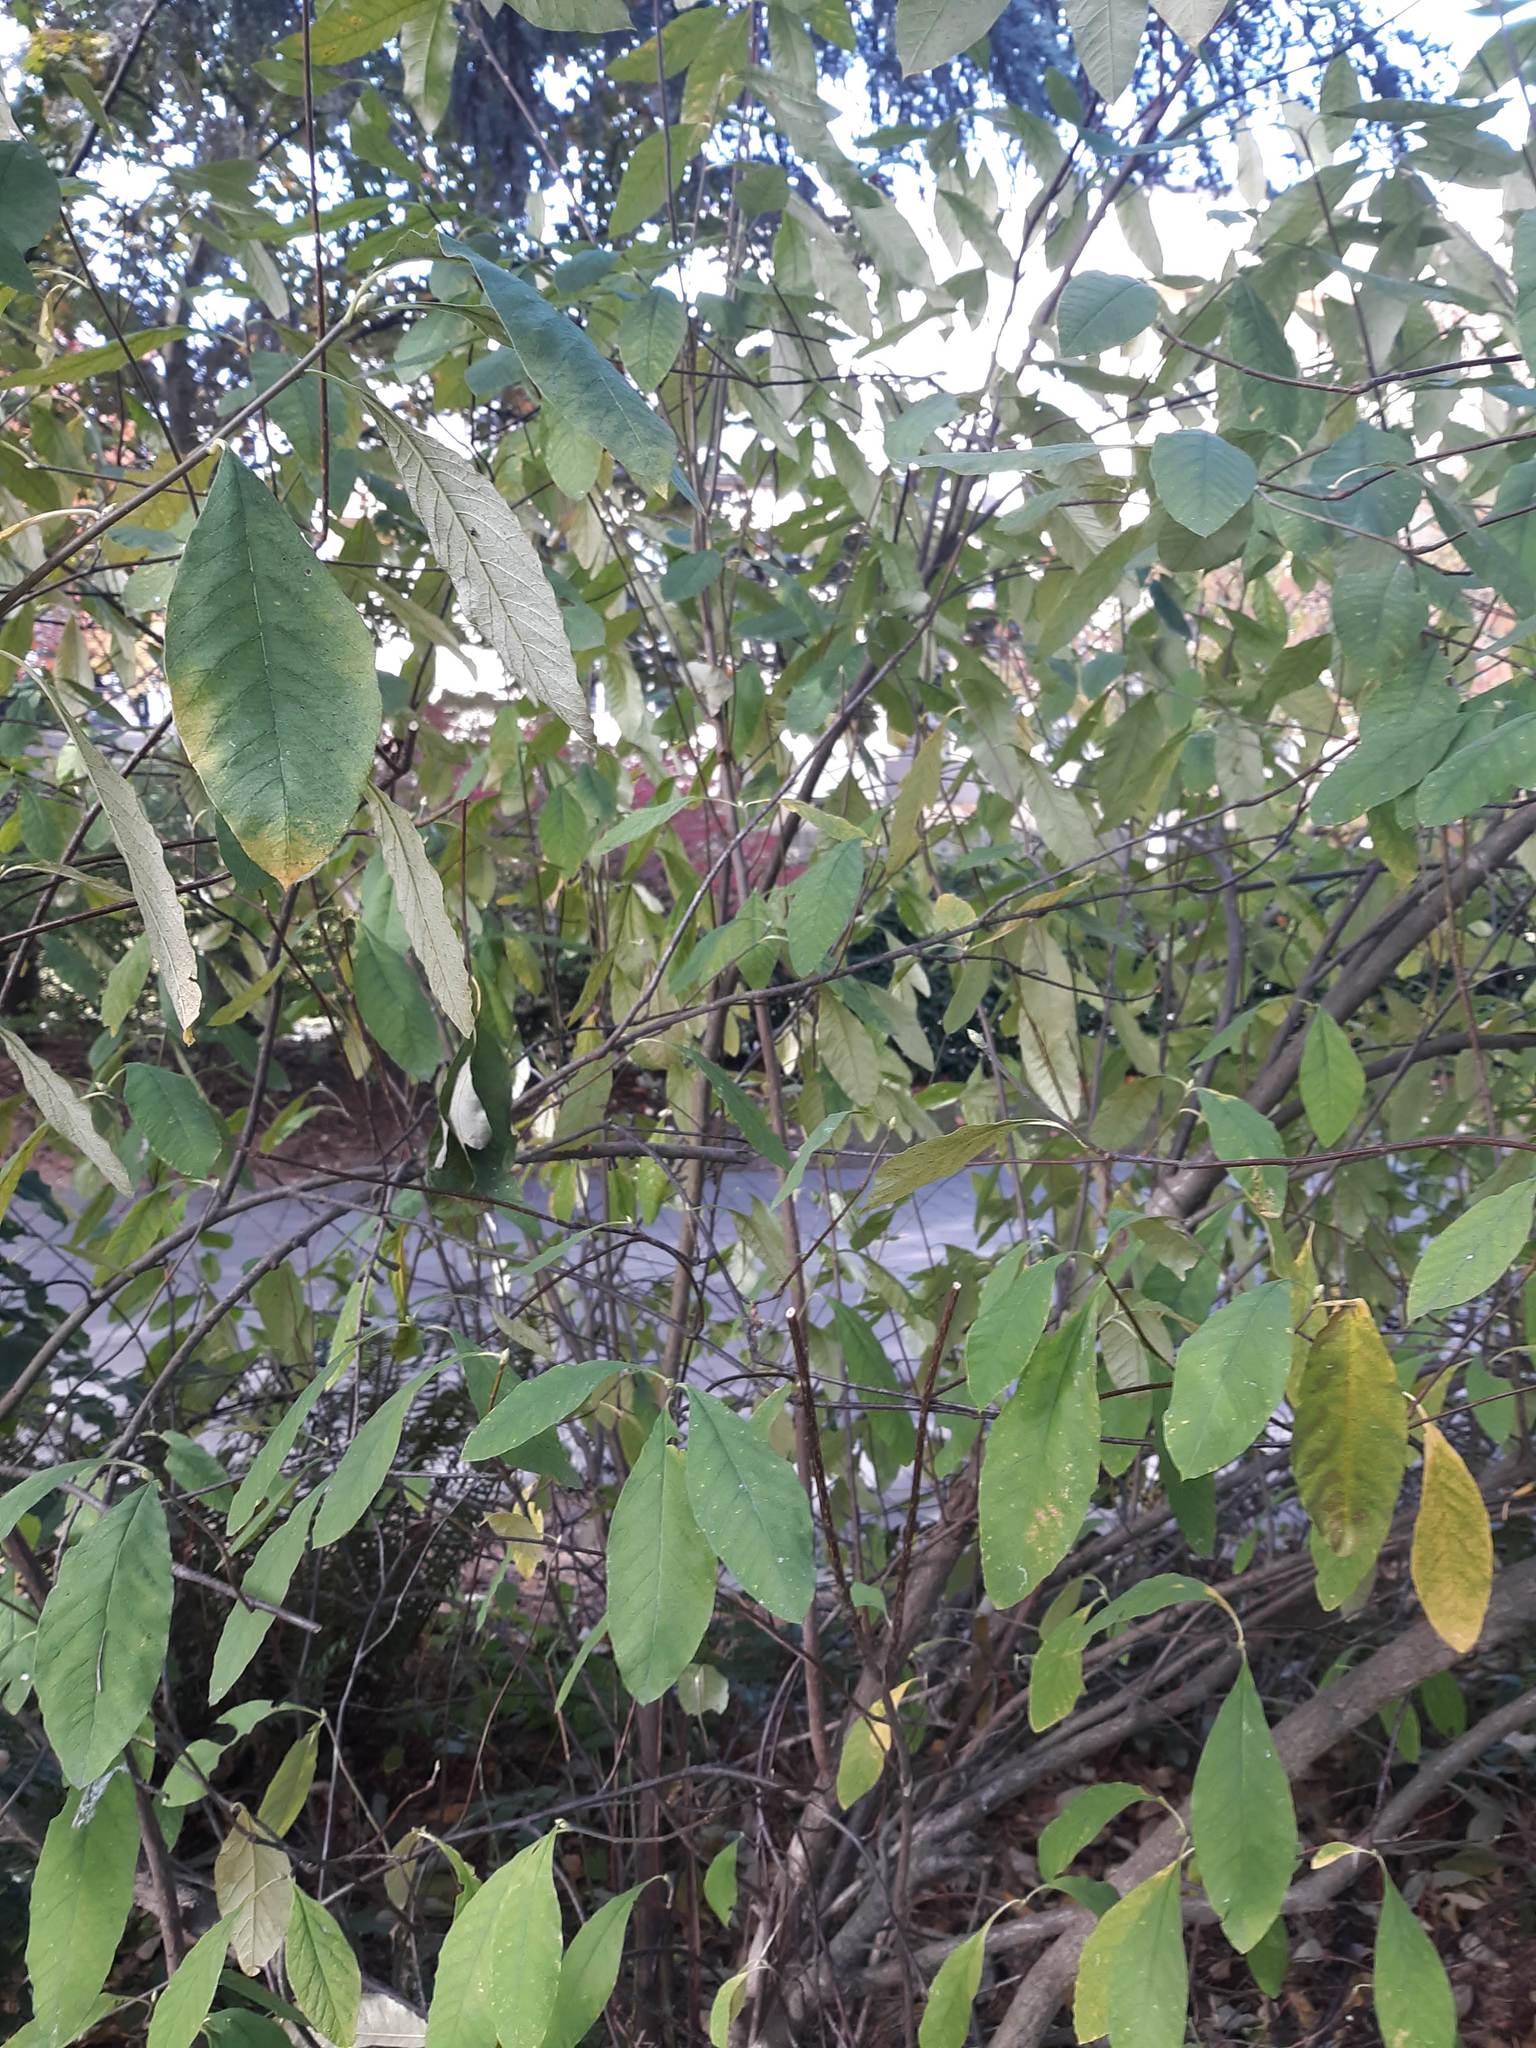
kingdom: Plantae
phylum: Tracheophyta
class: Magnoliopsida
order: Rosales
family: Rosaceae
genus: Oemleria
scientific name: Oemleria cerasiformis
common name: Osoberry
